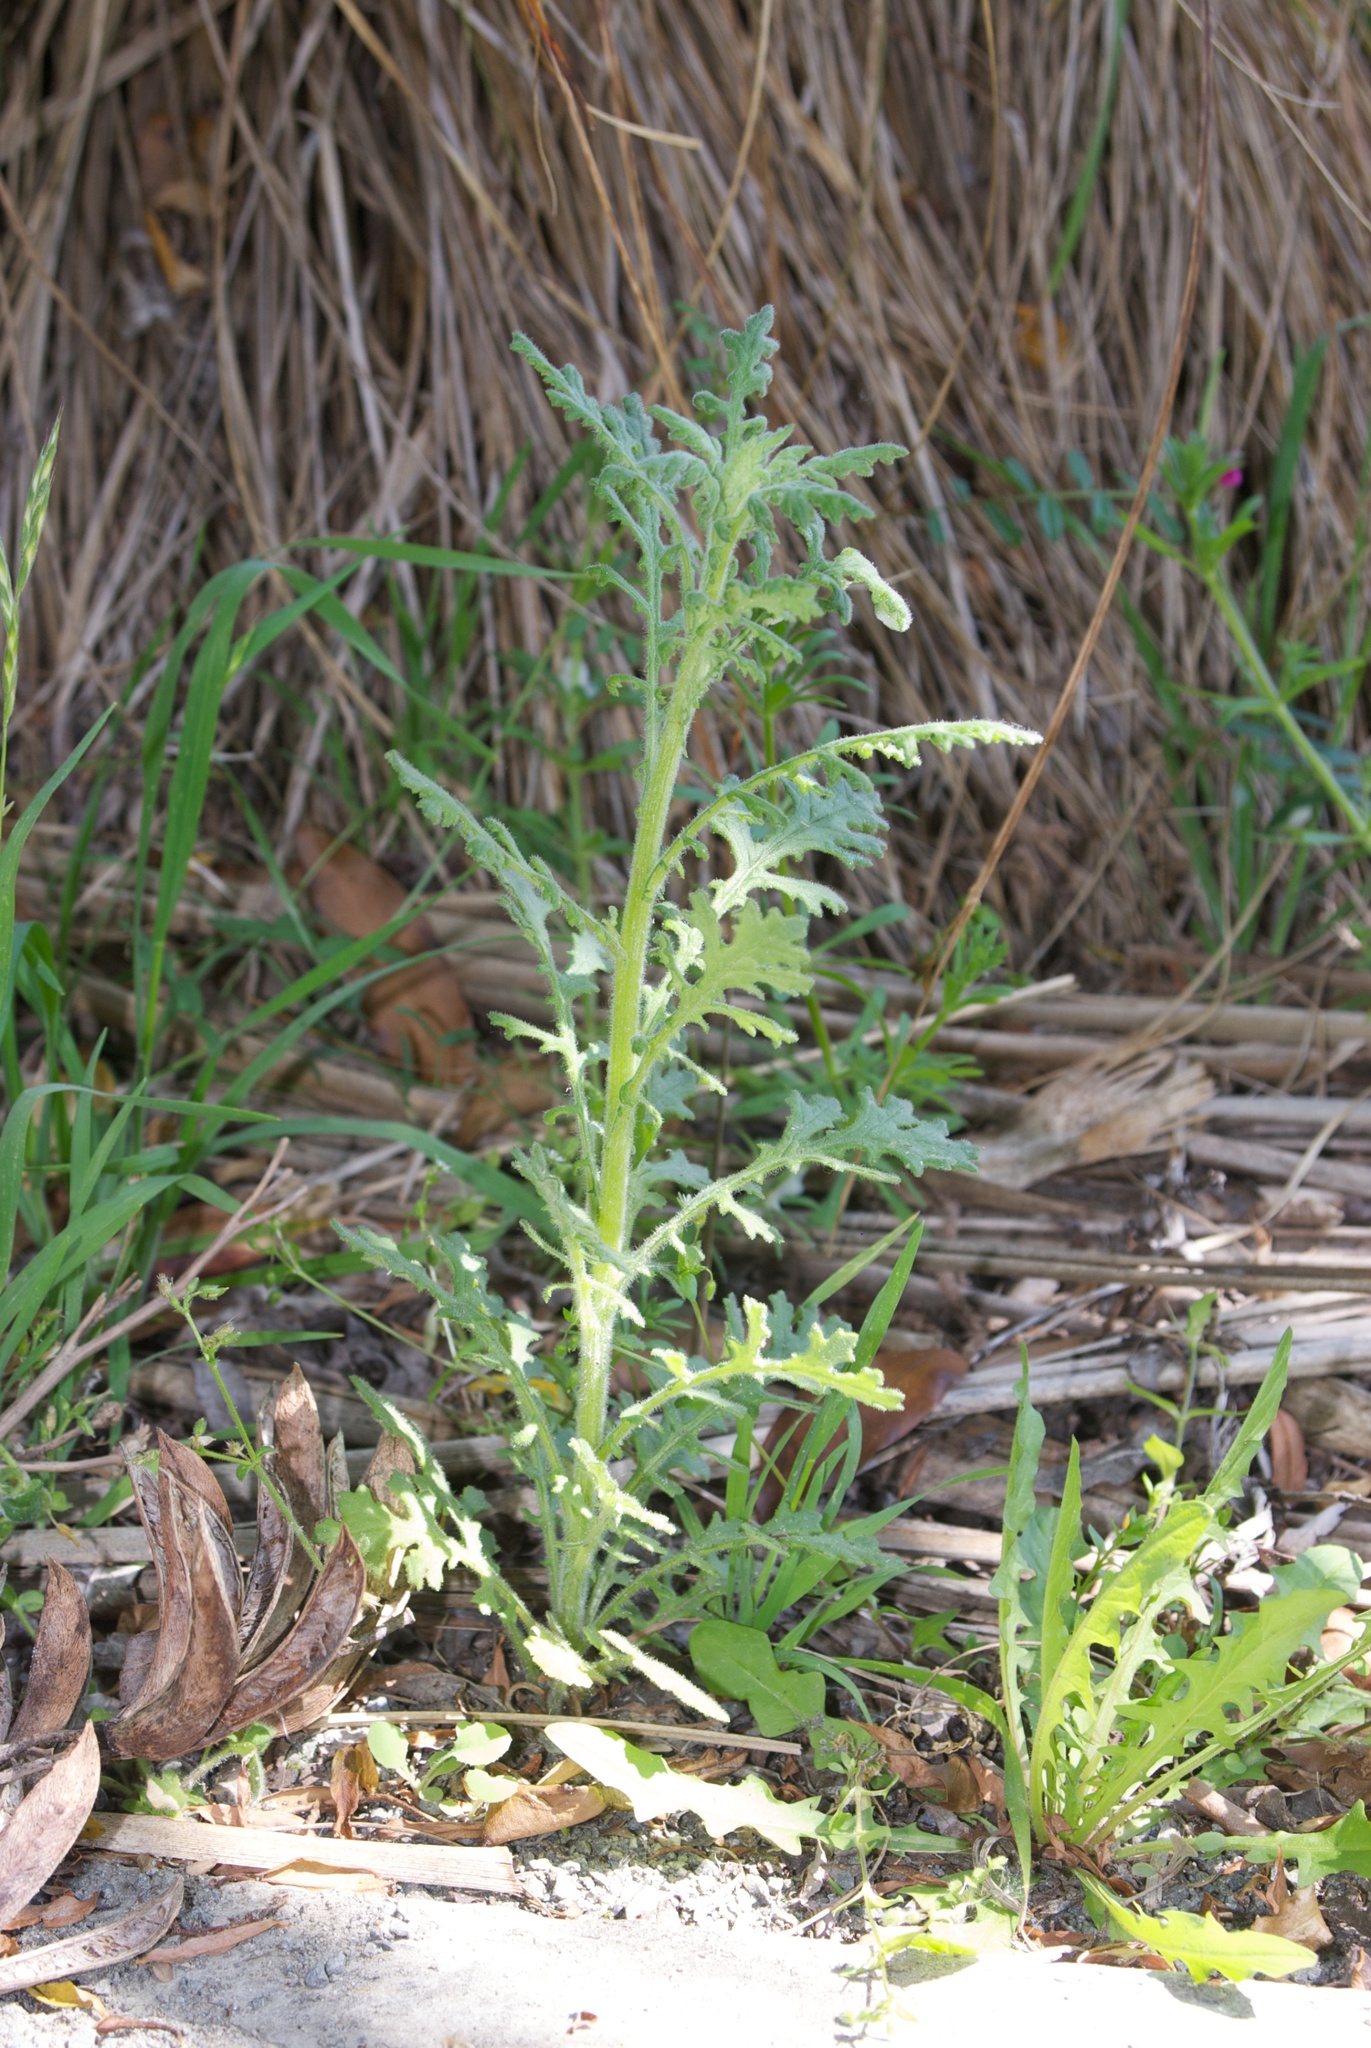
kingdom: Plantae
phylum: Tracheophyta
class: Magnoliopsida
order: Asterales
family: Asteraceae
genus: Senecio
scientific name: Senecio sylvaticus
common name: Woodland ragwort
